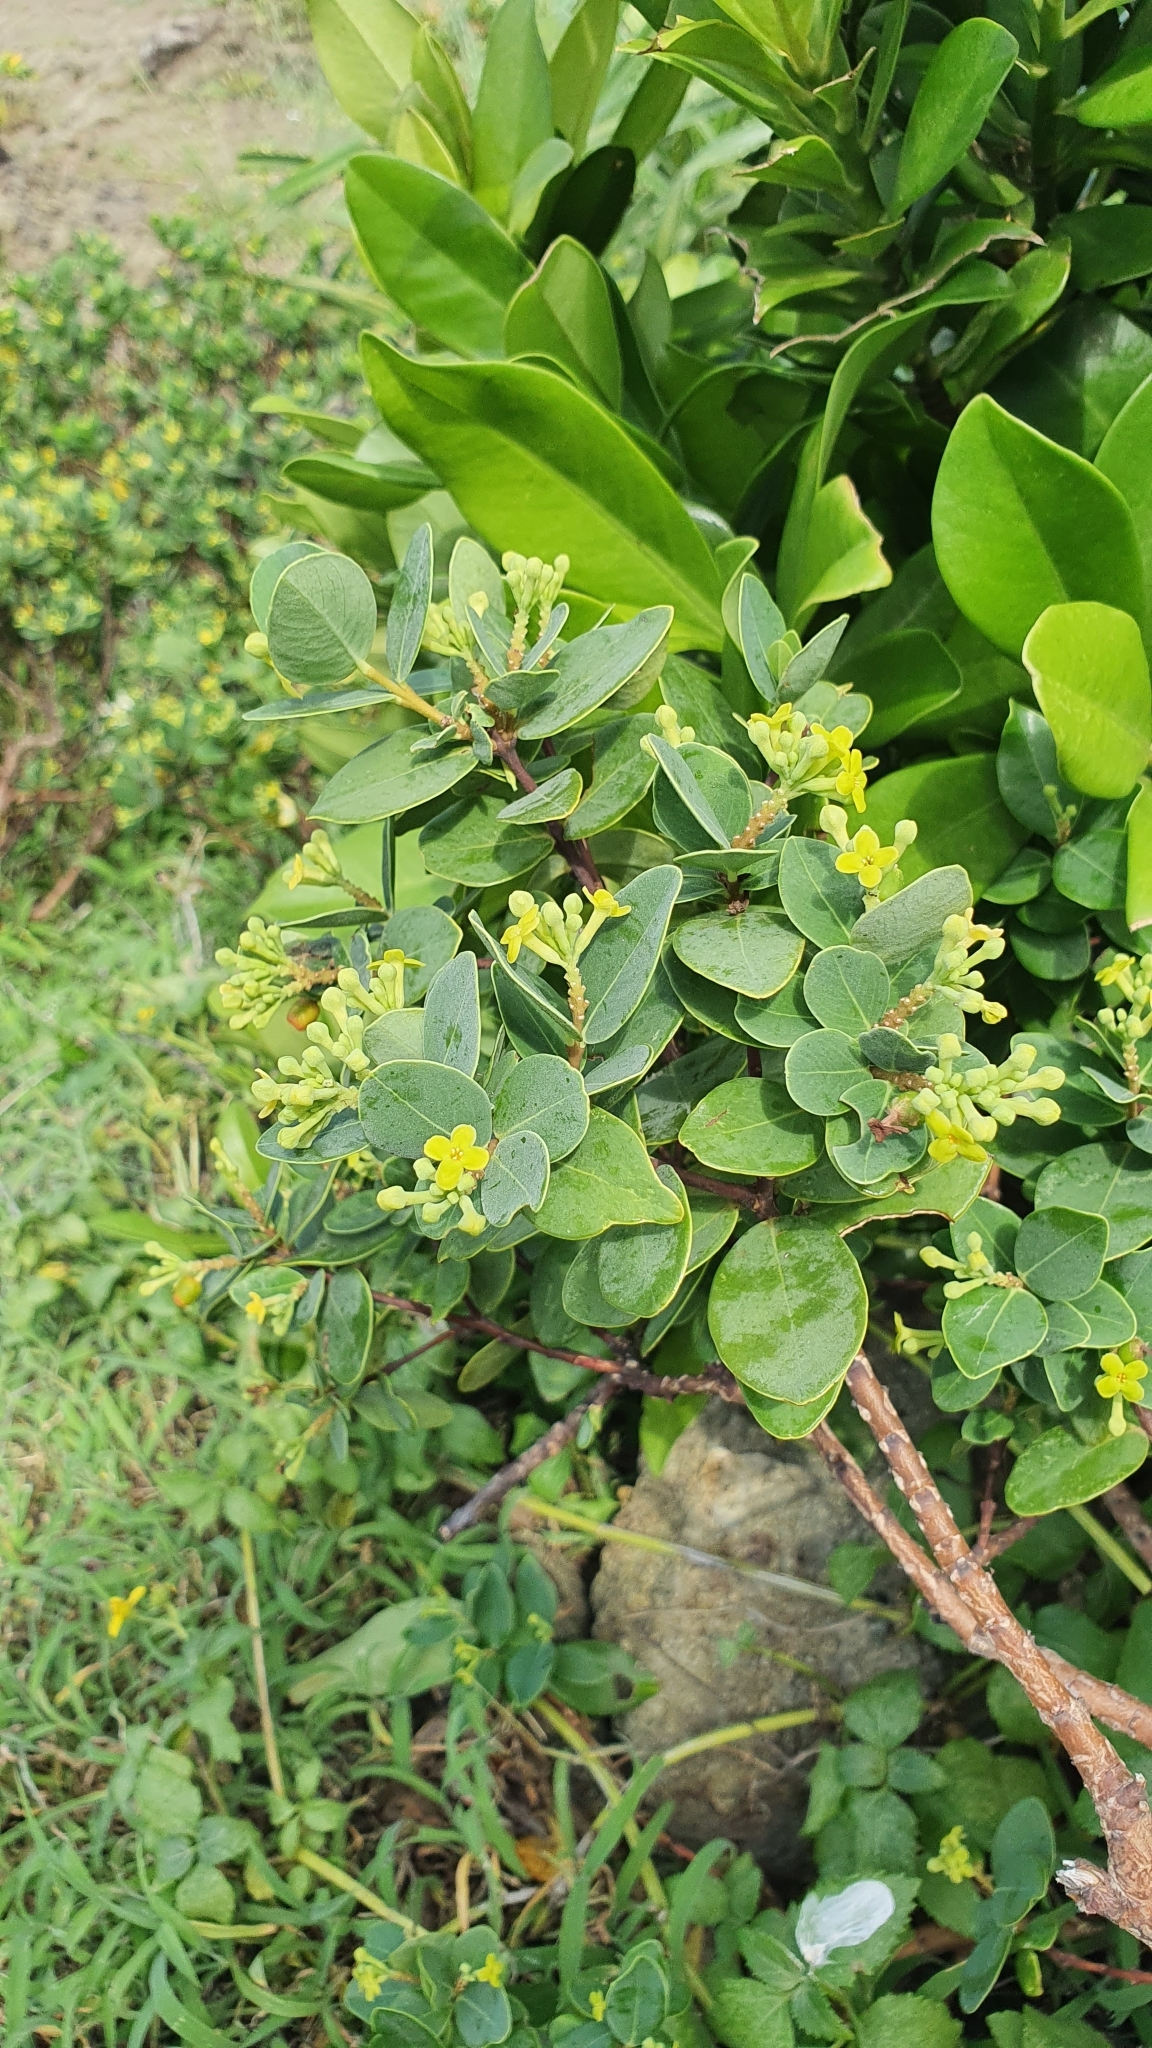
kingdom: Plantae
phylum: Tracheophyta
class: Magnoliopsida
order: Malvales
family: Thymelaeaceae
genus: Wikstroemia
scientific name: Wikstroemia retusa
